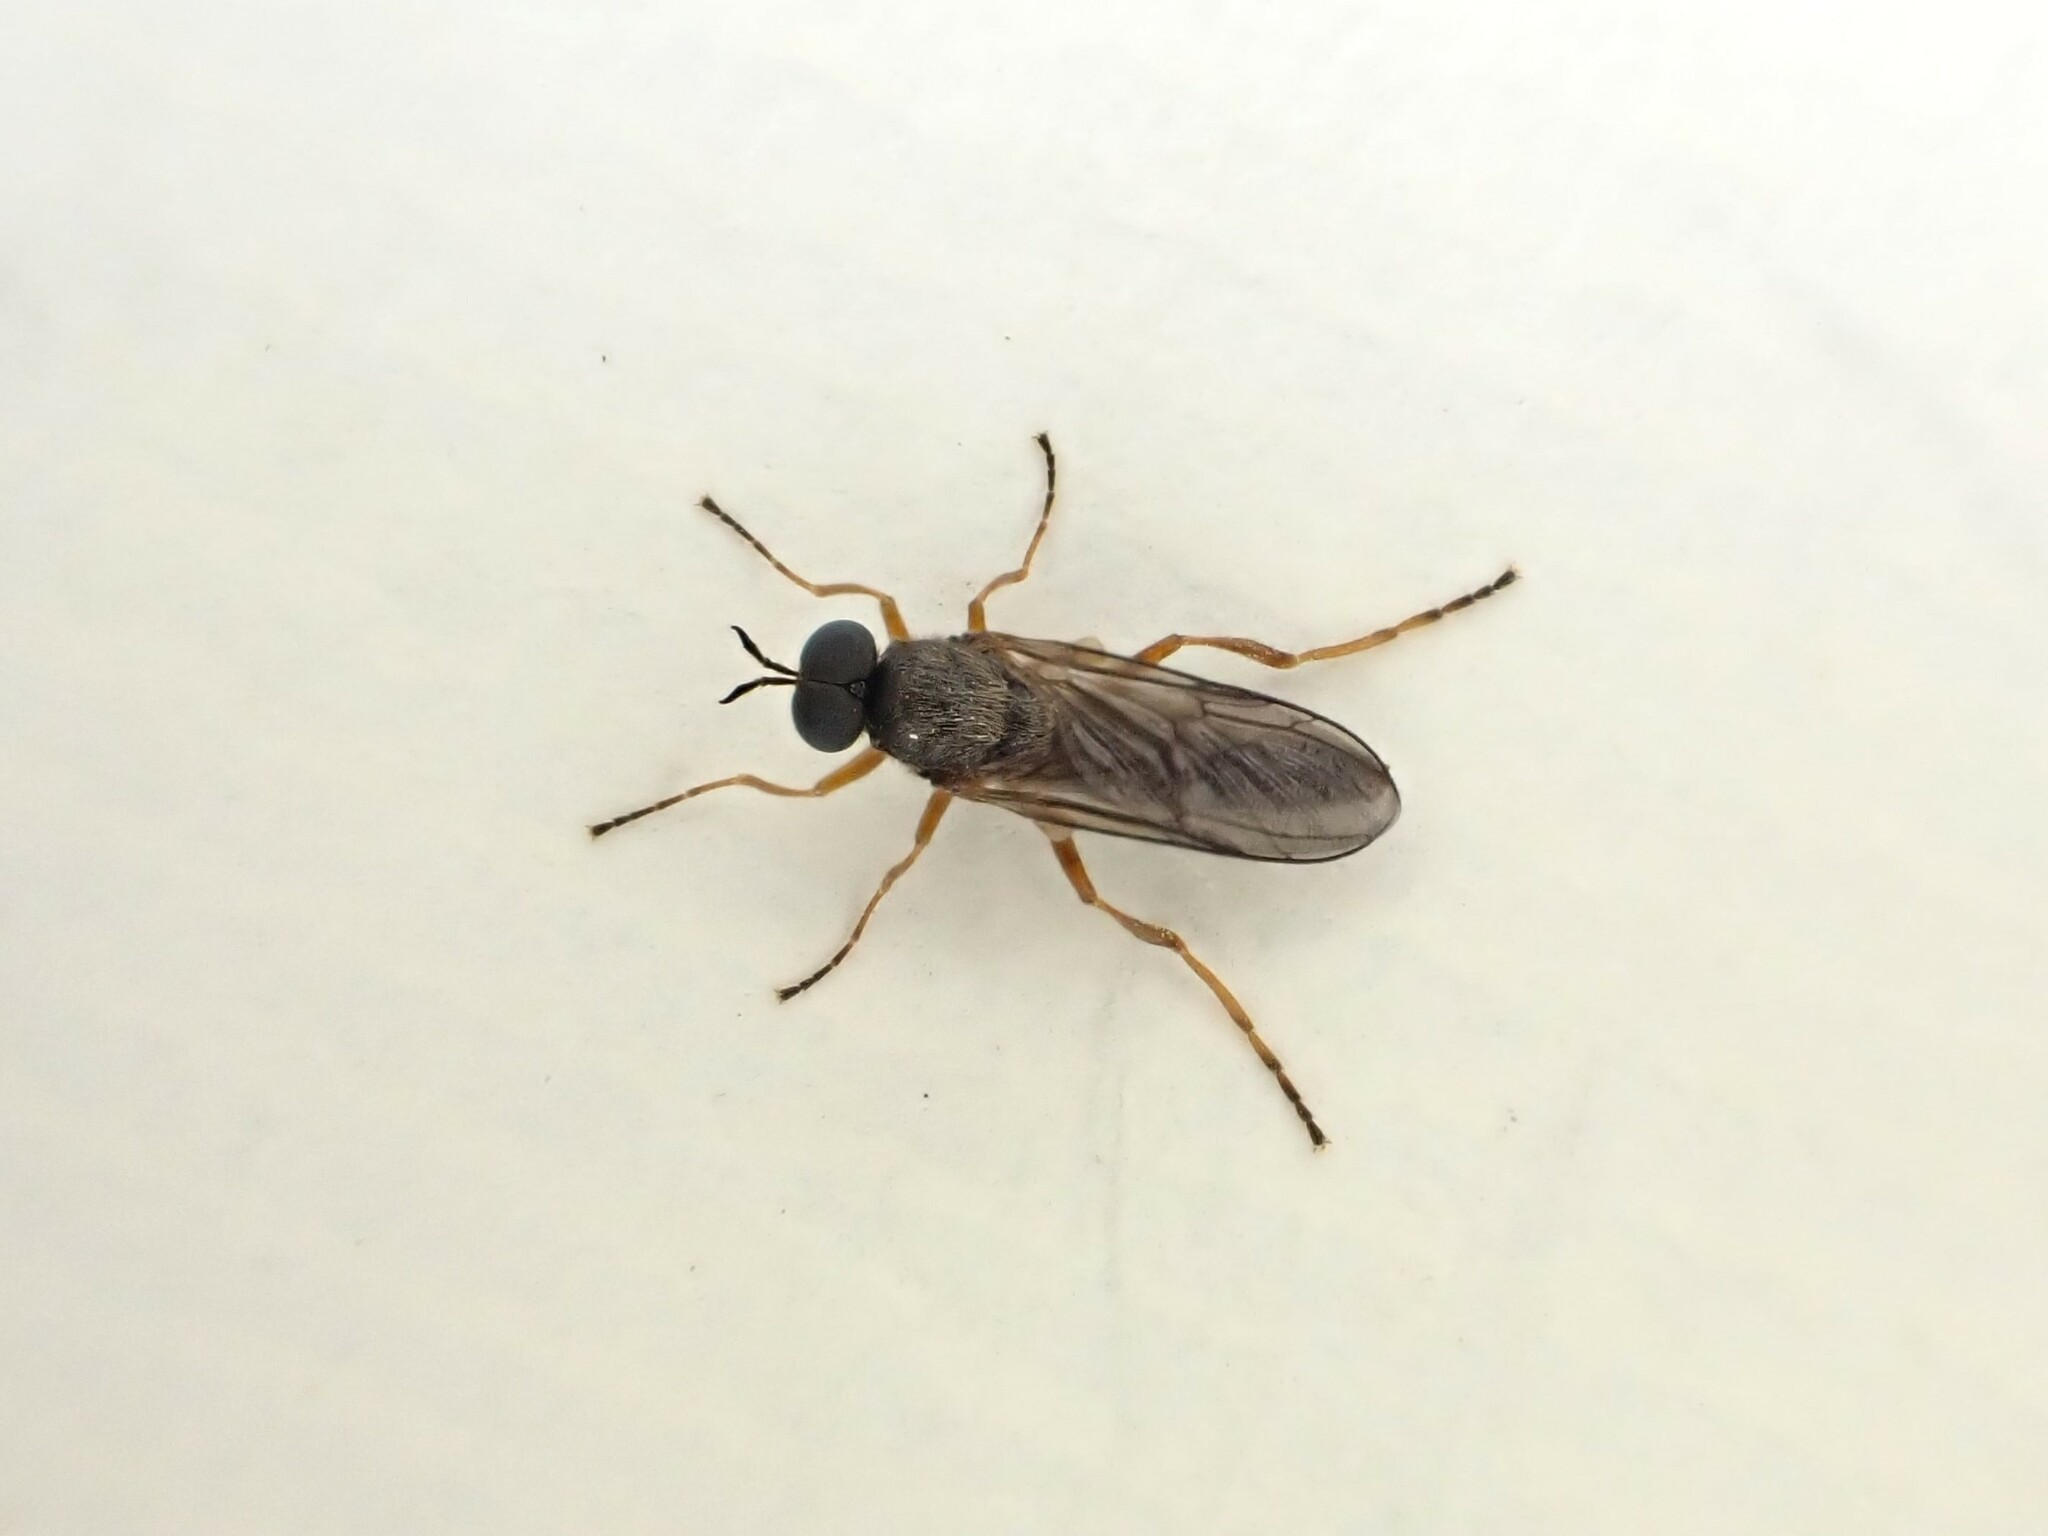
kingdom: Animalia
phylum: Arthropoda
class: Insecta
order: Diptera
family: Stratiomyidae
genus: Inopus
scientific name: Inopus rubriceps
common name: Soldier fly
